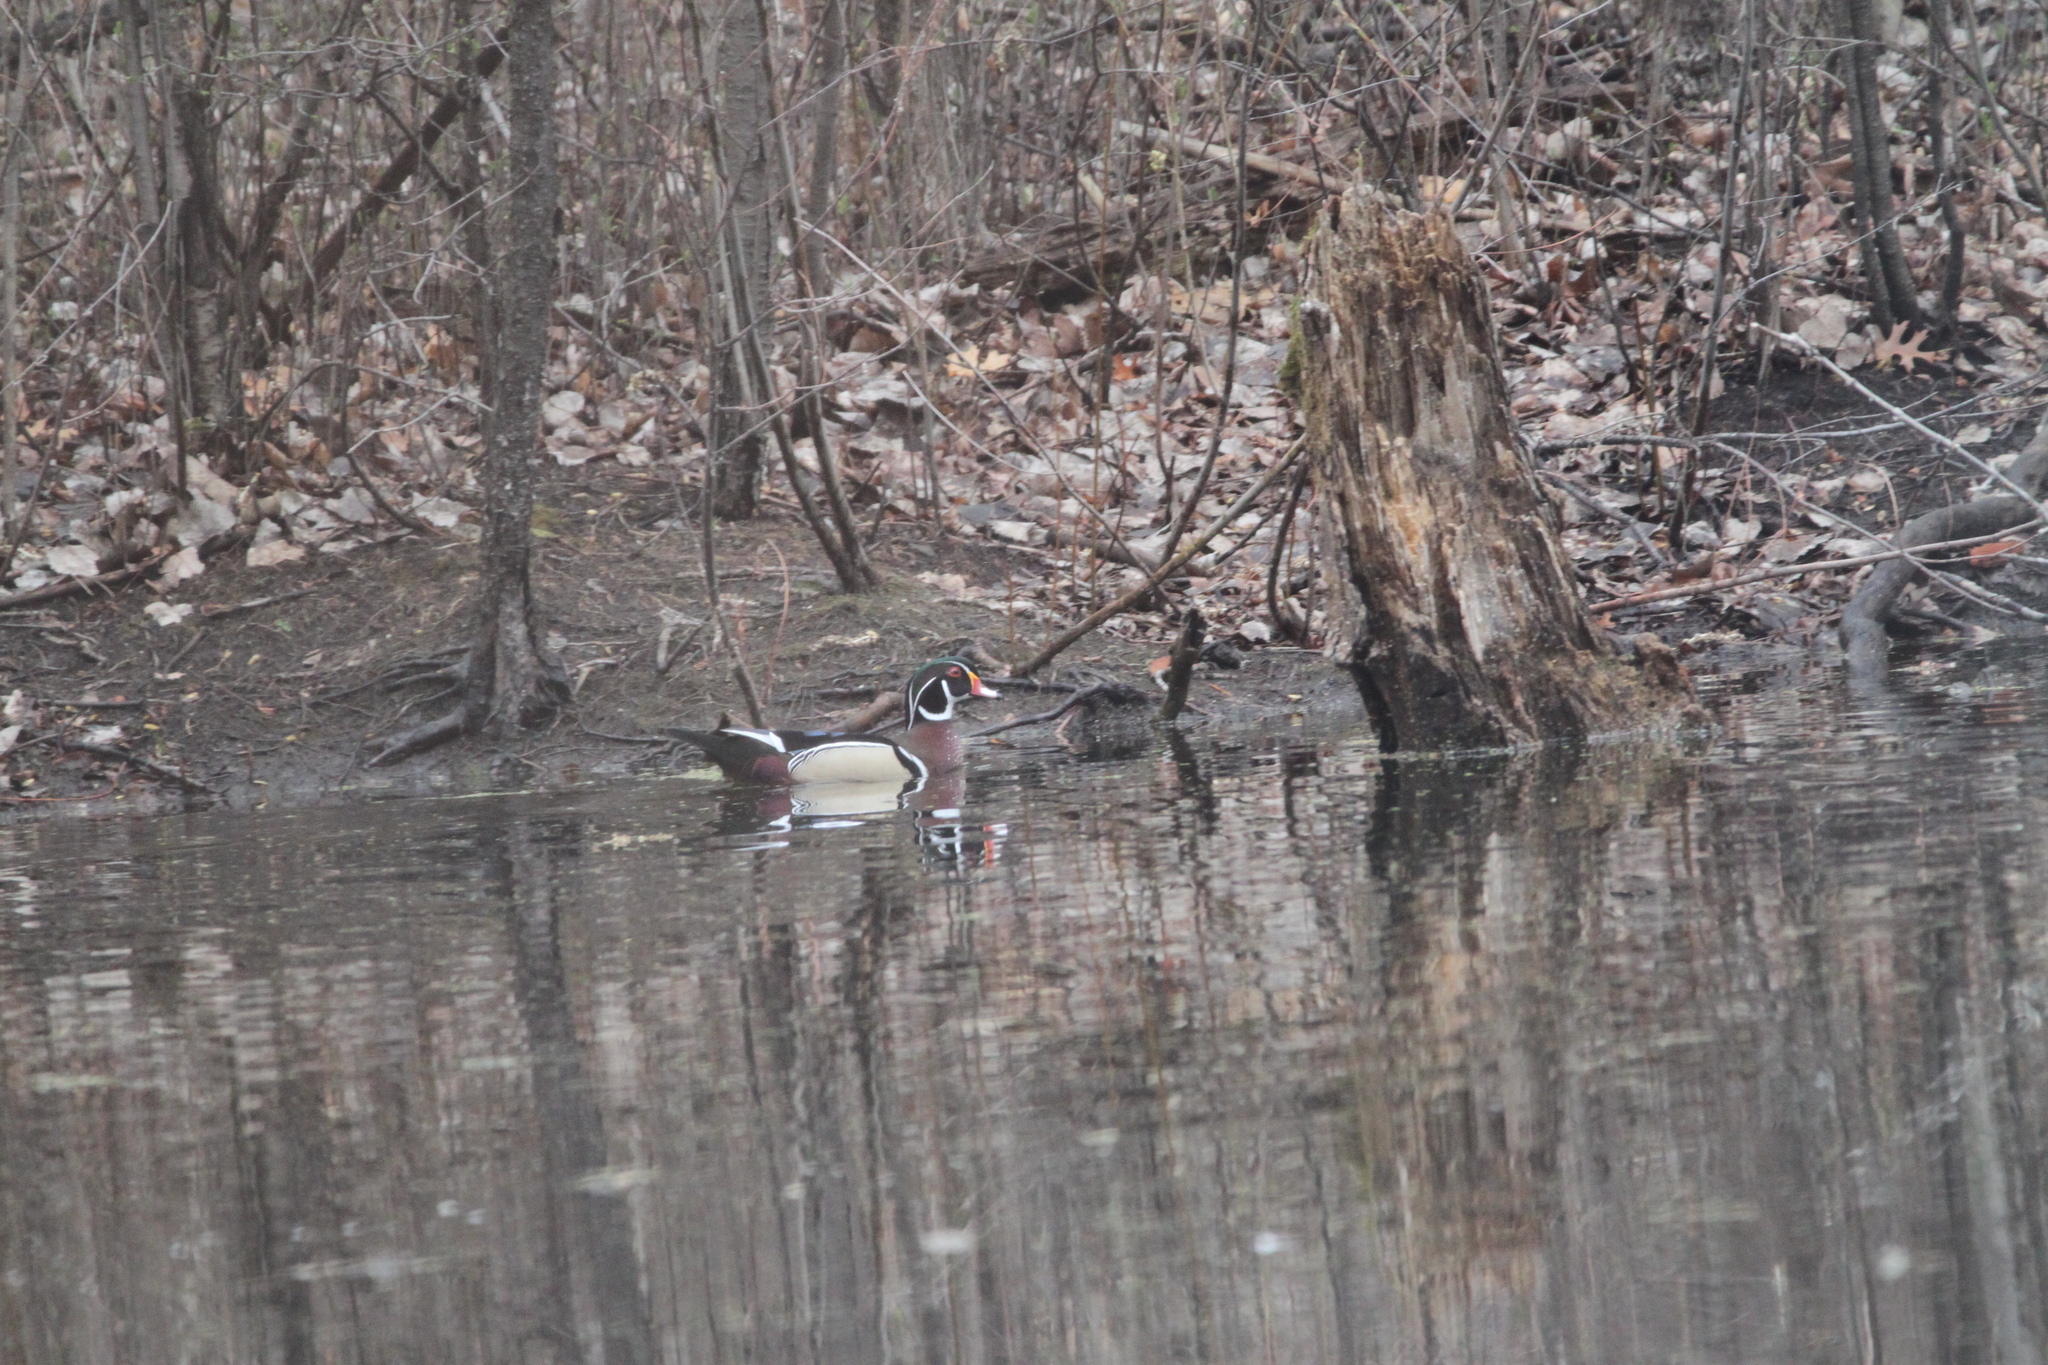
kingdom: Animalia
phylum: Chordata
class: Aves
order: Anseriformes
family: Anatidae
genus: Aix
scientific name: Aix sponsa
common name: Wood duck
